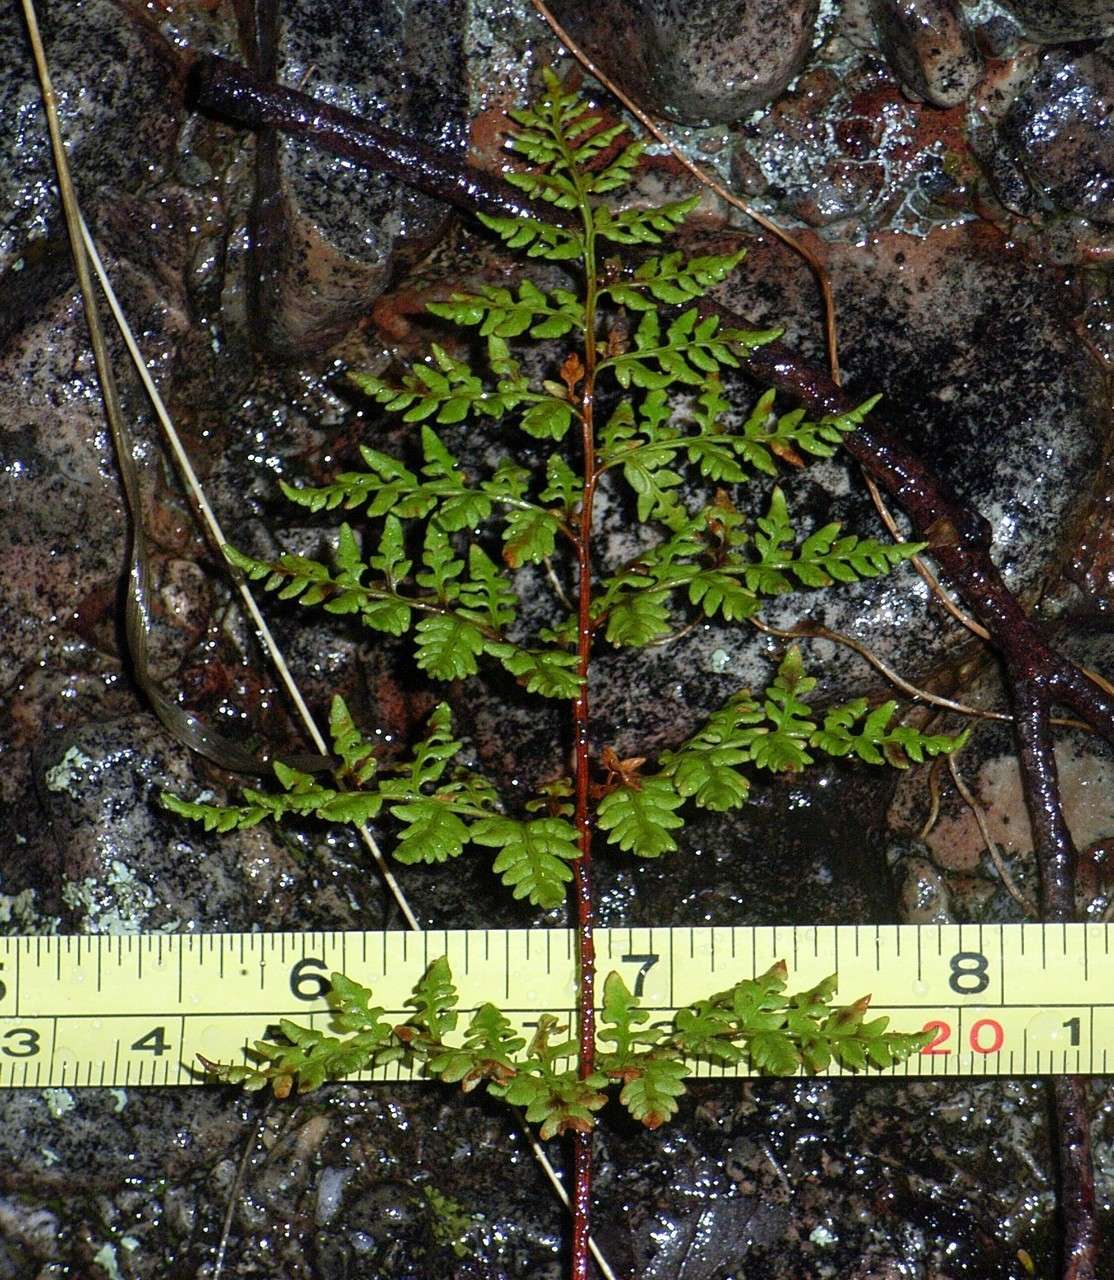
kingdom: Plantae
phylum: Tracheophyta
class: Polypodiopsida
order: Polypodiales
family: Pteridaceae
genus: Cheilanthes
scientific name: Cheilanthes austrotenuifolia
